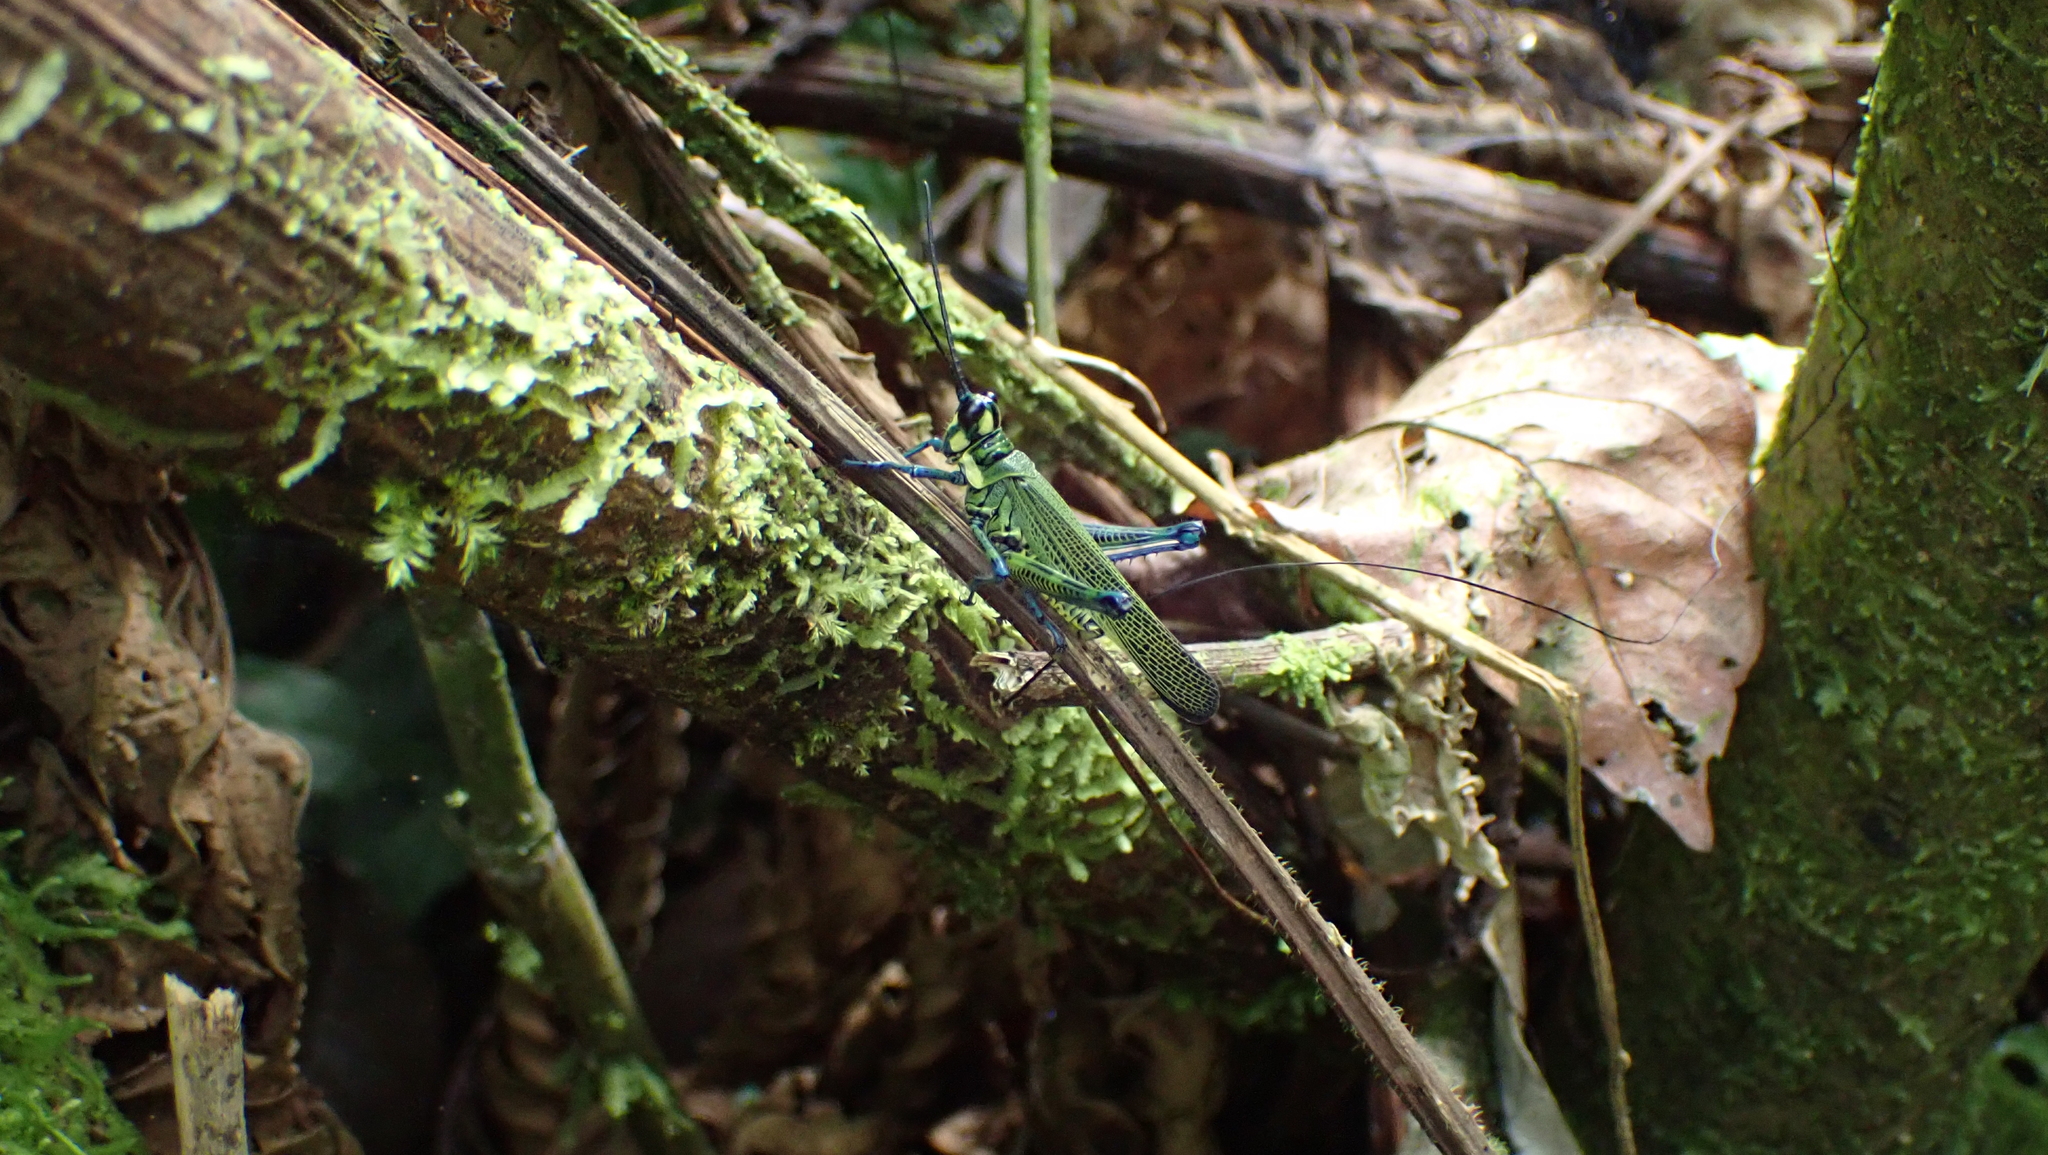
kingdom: Animalia
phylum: Arthropoda
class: Insecta
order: Orthoptera
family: Romaleidae
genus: Chromacris
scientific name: Chromacris trogon
